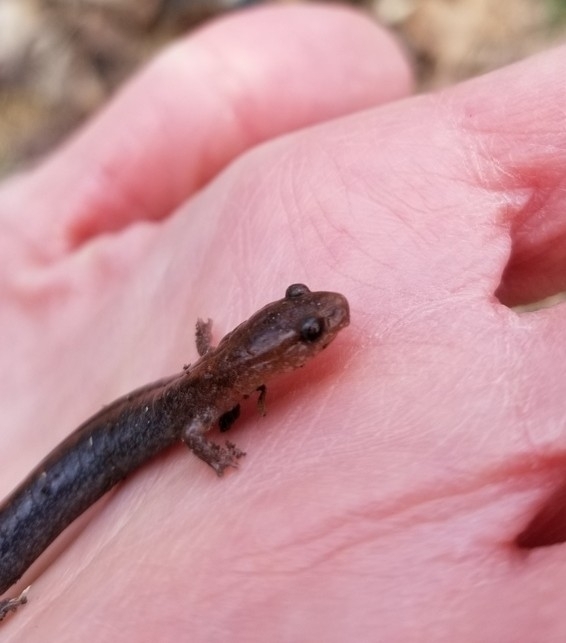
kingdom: Animalia
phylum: Chordata
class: Amphibia
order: Caudata
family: Plethodontidae
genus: Plethodon
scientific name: Plethodon cinereus
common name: Redback salamander
